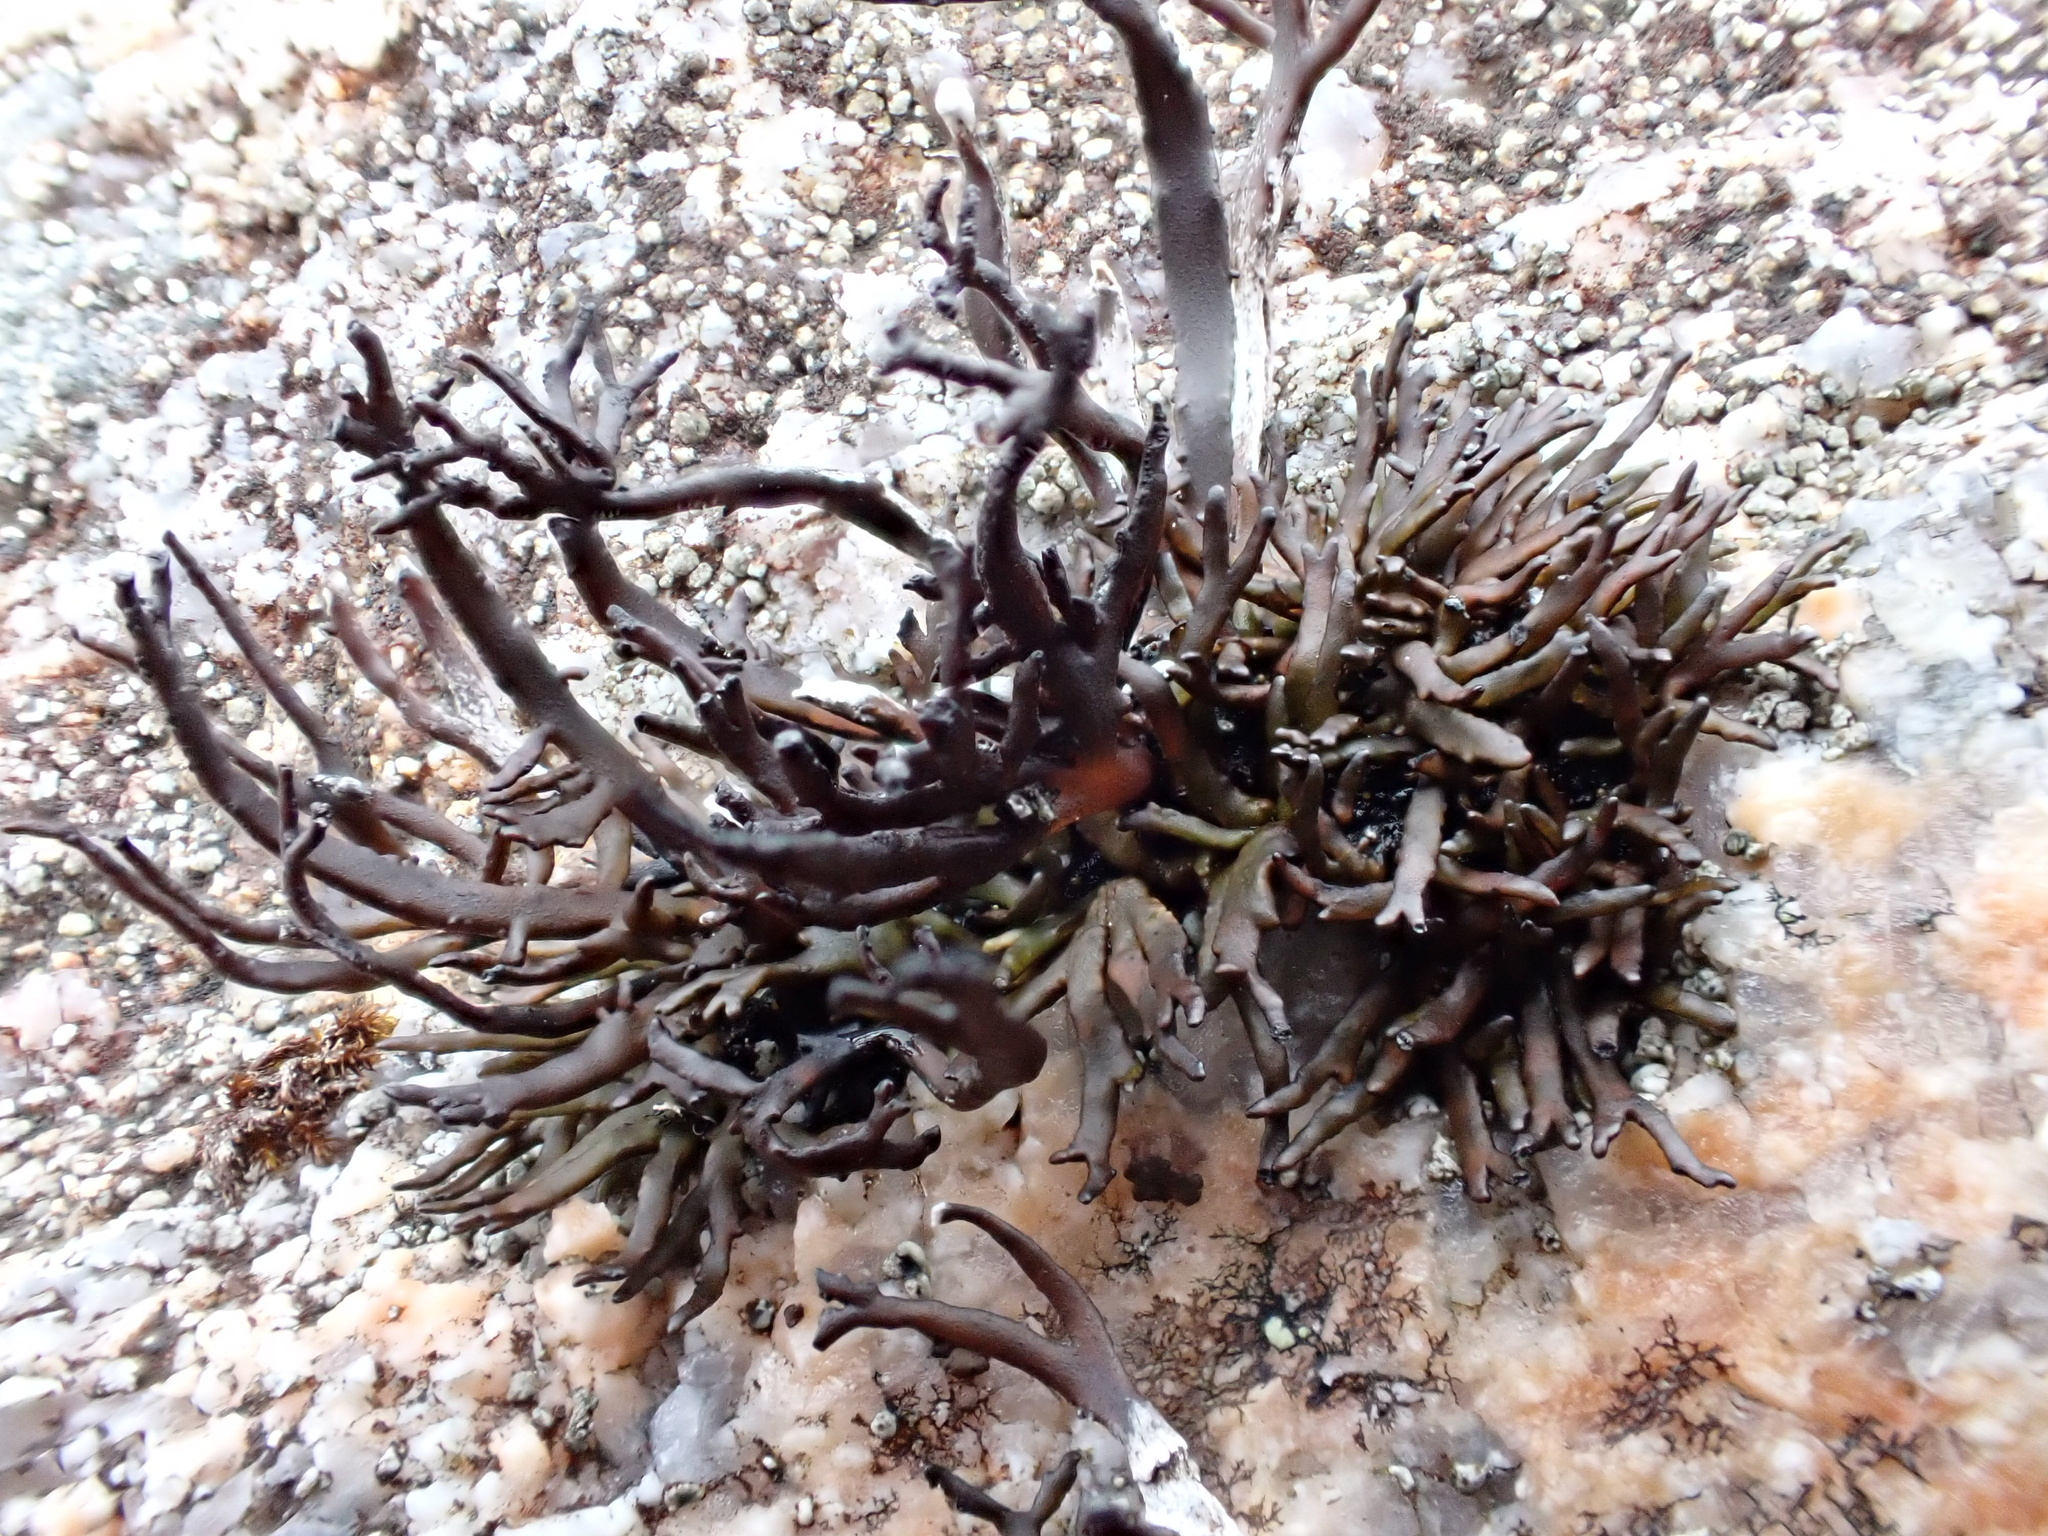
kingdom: Fungi
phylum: Ascomycota
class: Lecanoromycetes
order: Lecanorales
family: Parmeliaceae
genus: Cornicularia
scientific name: Cornicularia normoerica
